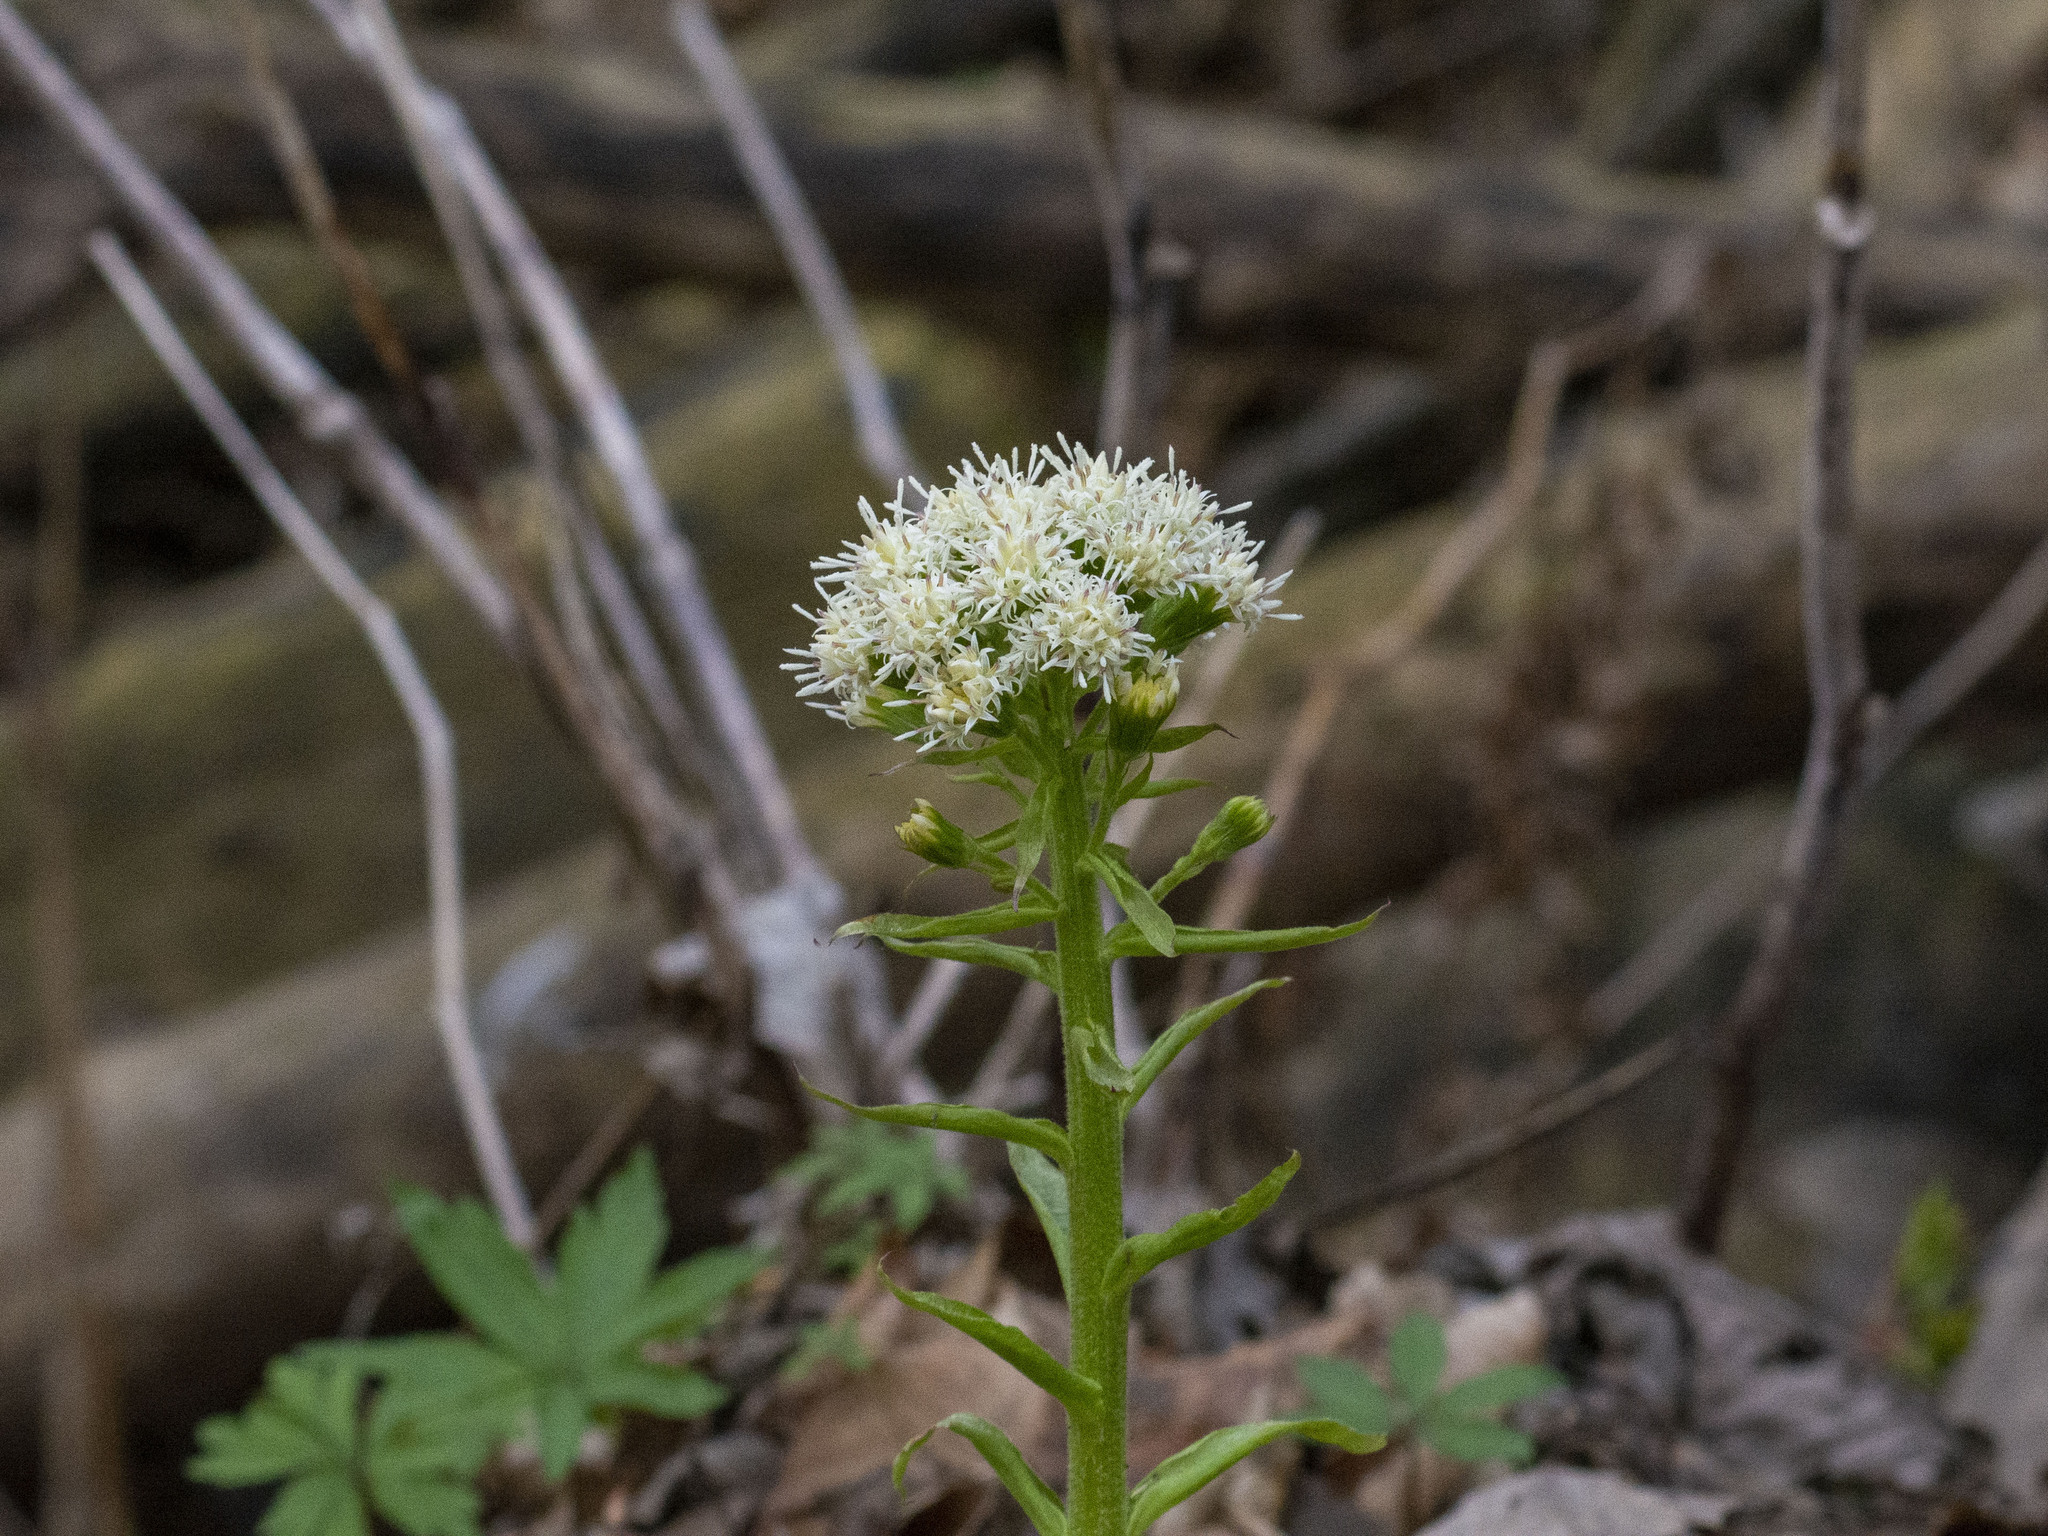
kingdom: Plantae
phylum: Tracheophyta
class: Magnoliopsida
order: Asterales
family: Asteraceae
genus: Petasites
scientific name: Petasites albus
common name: White butterbur
